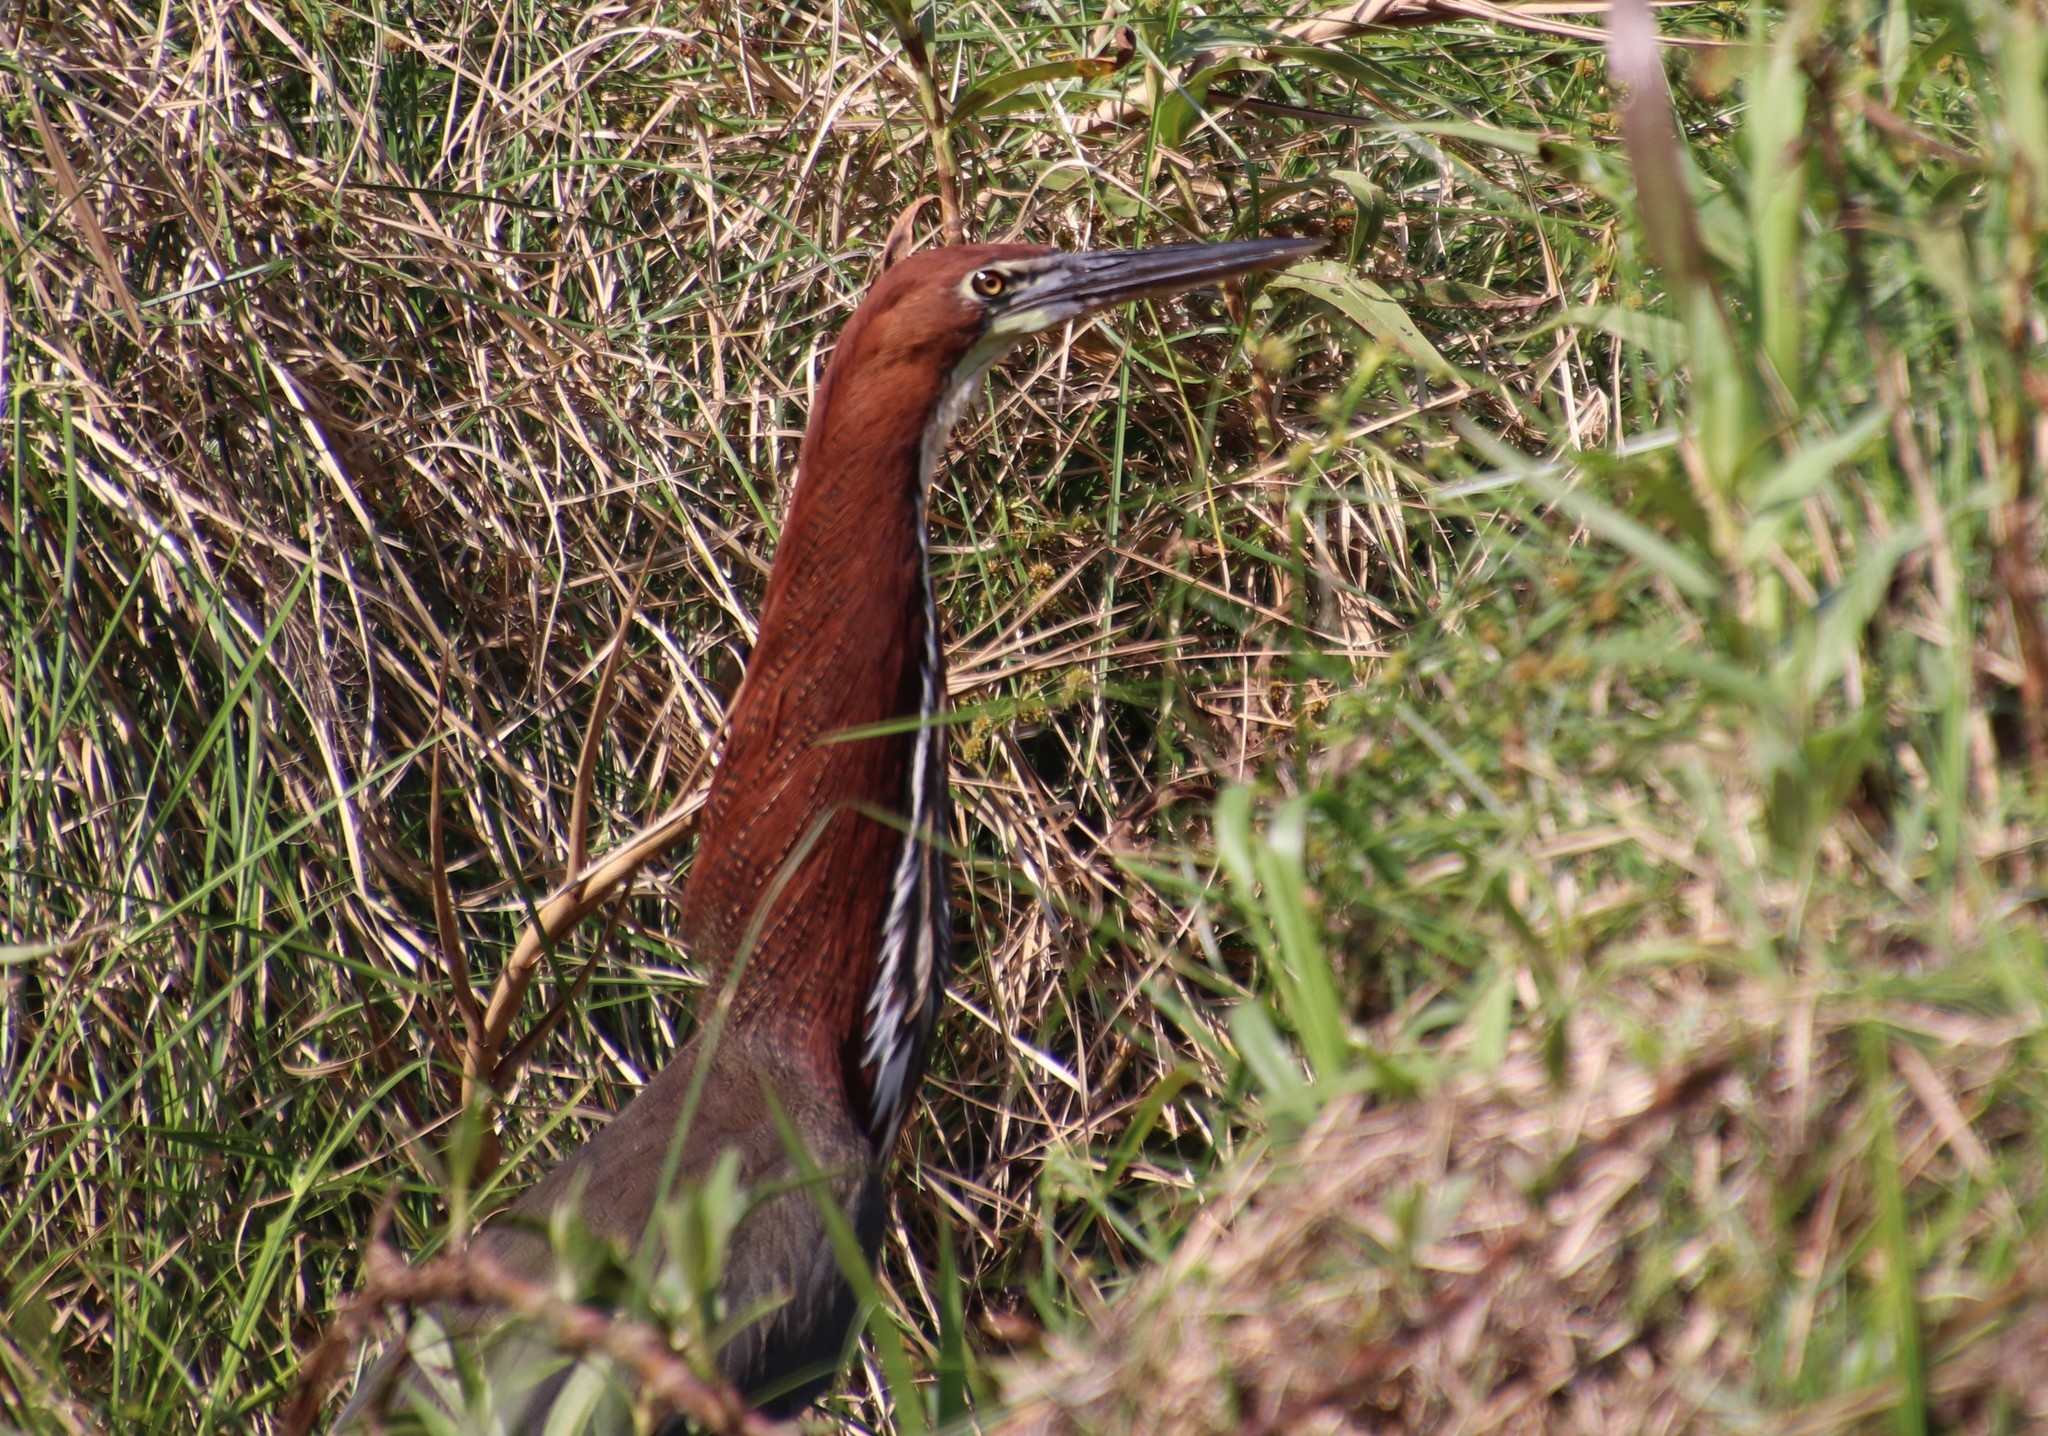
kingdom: Animalia
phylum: Chordata
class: Aves
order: Pelecaniformes
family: Ardeidae
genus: Tigrisoma
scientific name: Tigrisoma lineatum
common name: Rufescent tiger-heron
